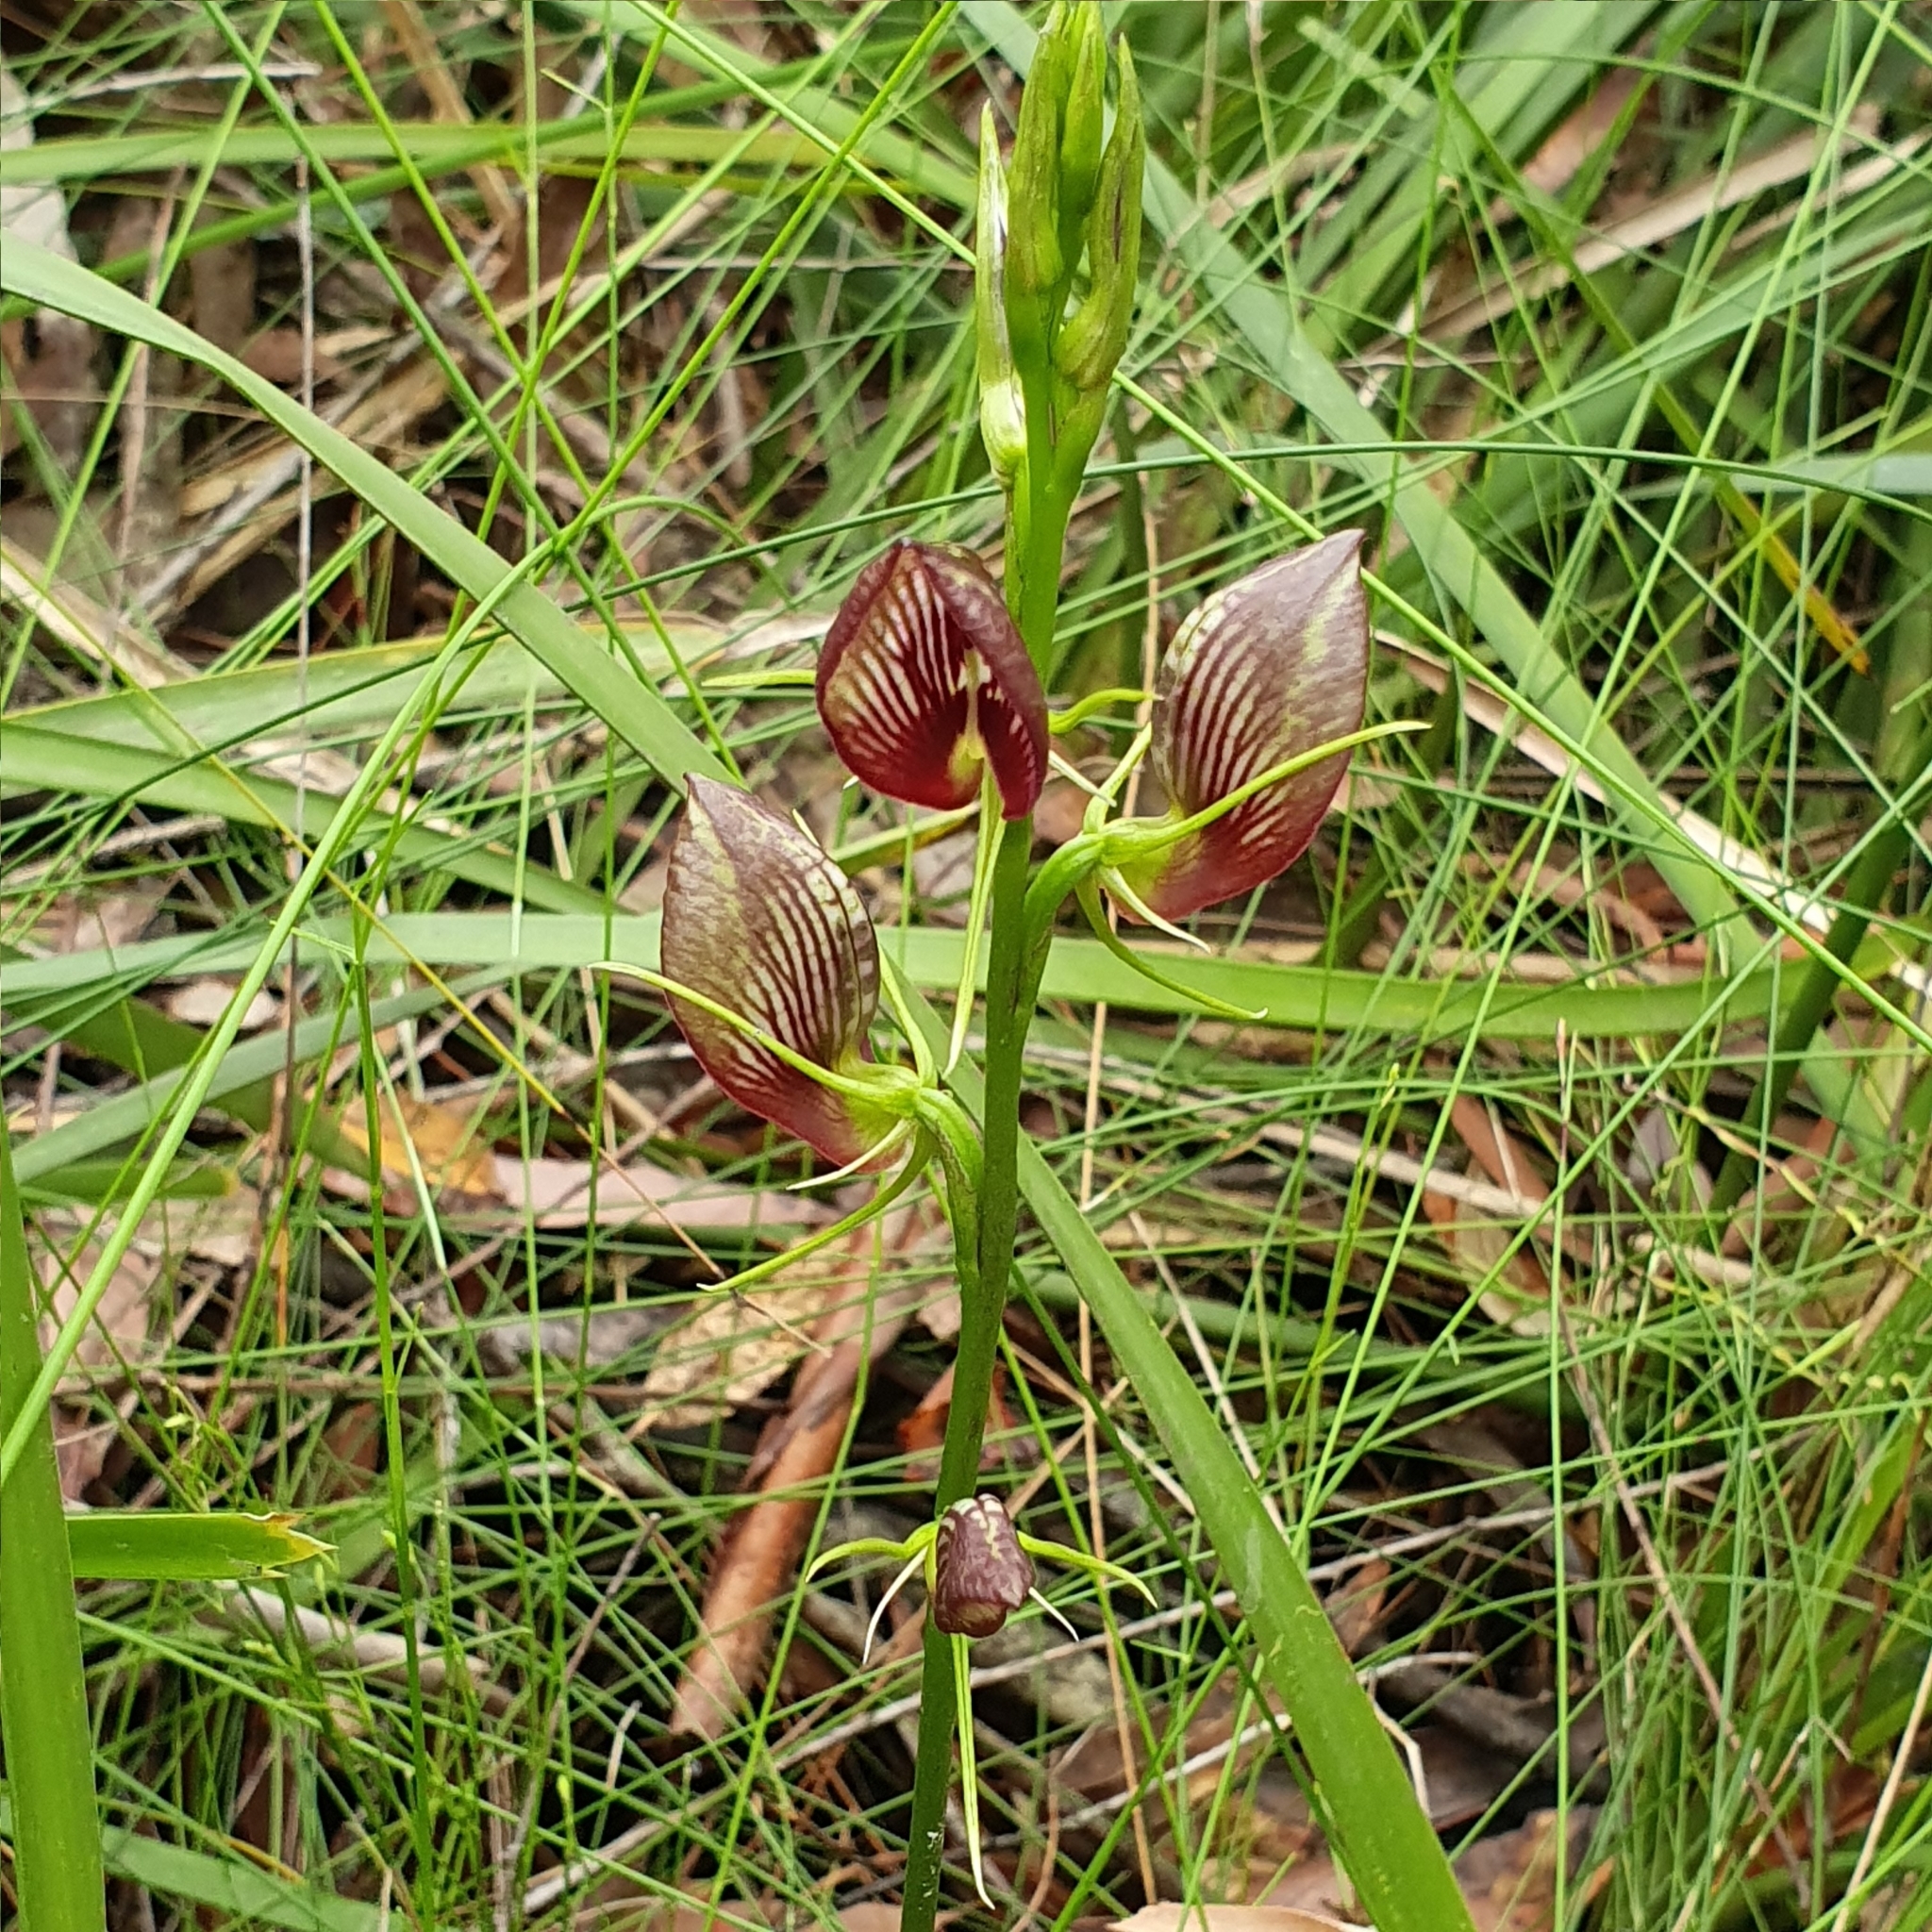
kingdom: Plantae
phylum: Tracheophyta
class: Liliopsida
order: Asparagales
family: Orchidaceae
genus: Cryptostylis
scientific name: Cryptostylis erecta
